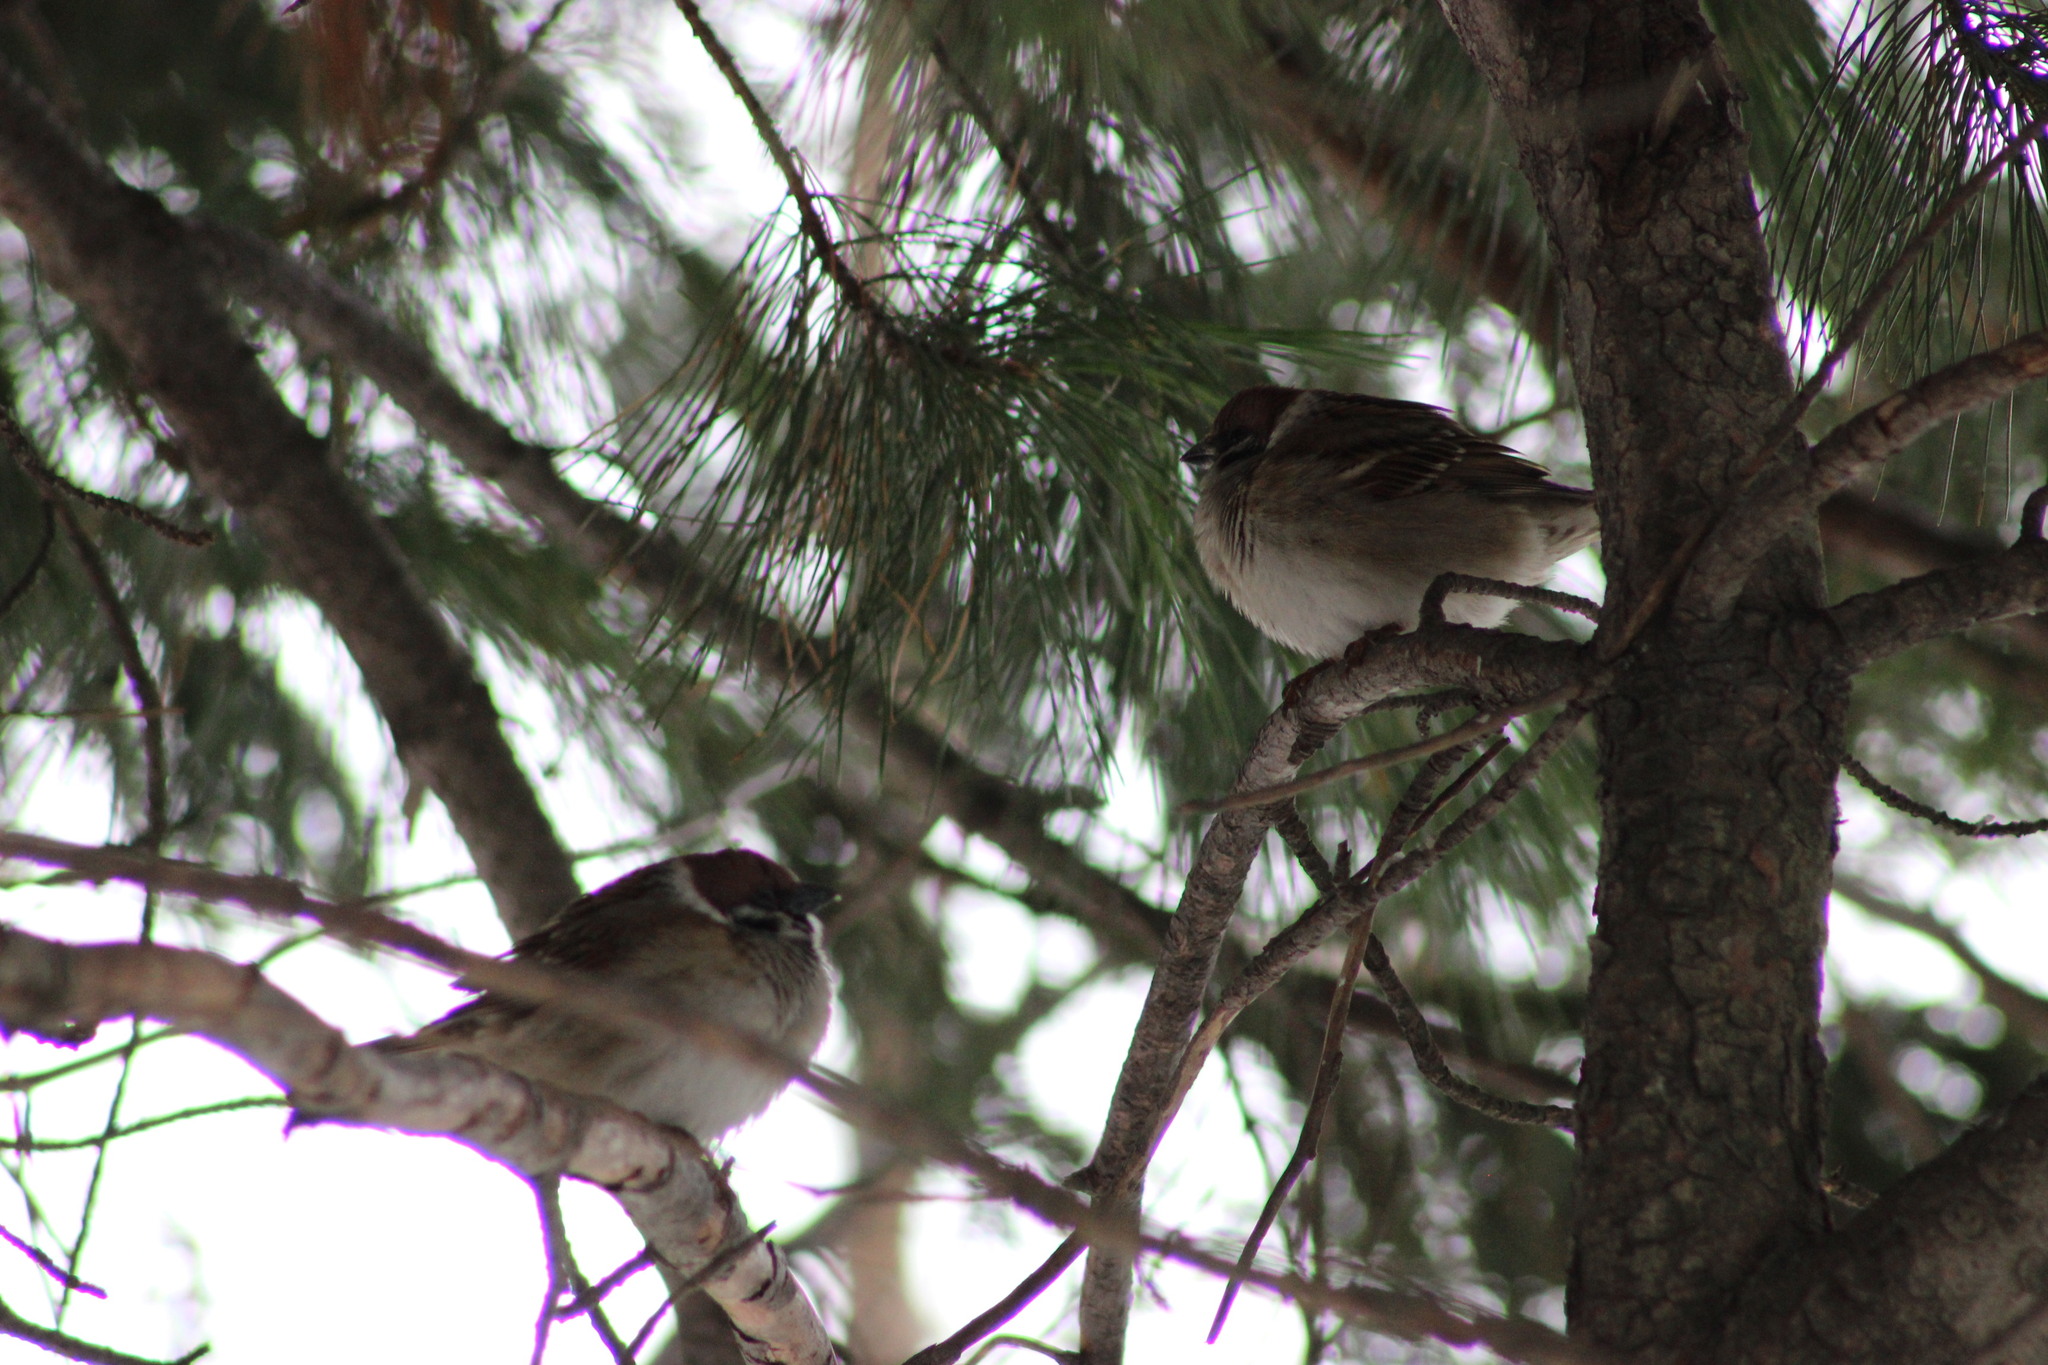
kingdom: Animalia
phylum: Chordata
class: Aves
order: Passeriformes
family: Passeridae
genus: Passer
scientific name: Passer montanus
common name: Eurasian tree sparrow
